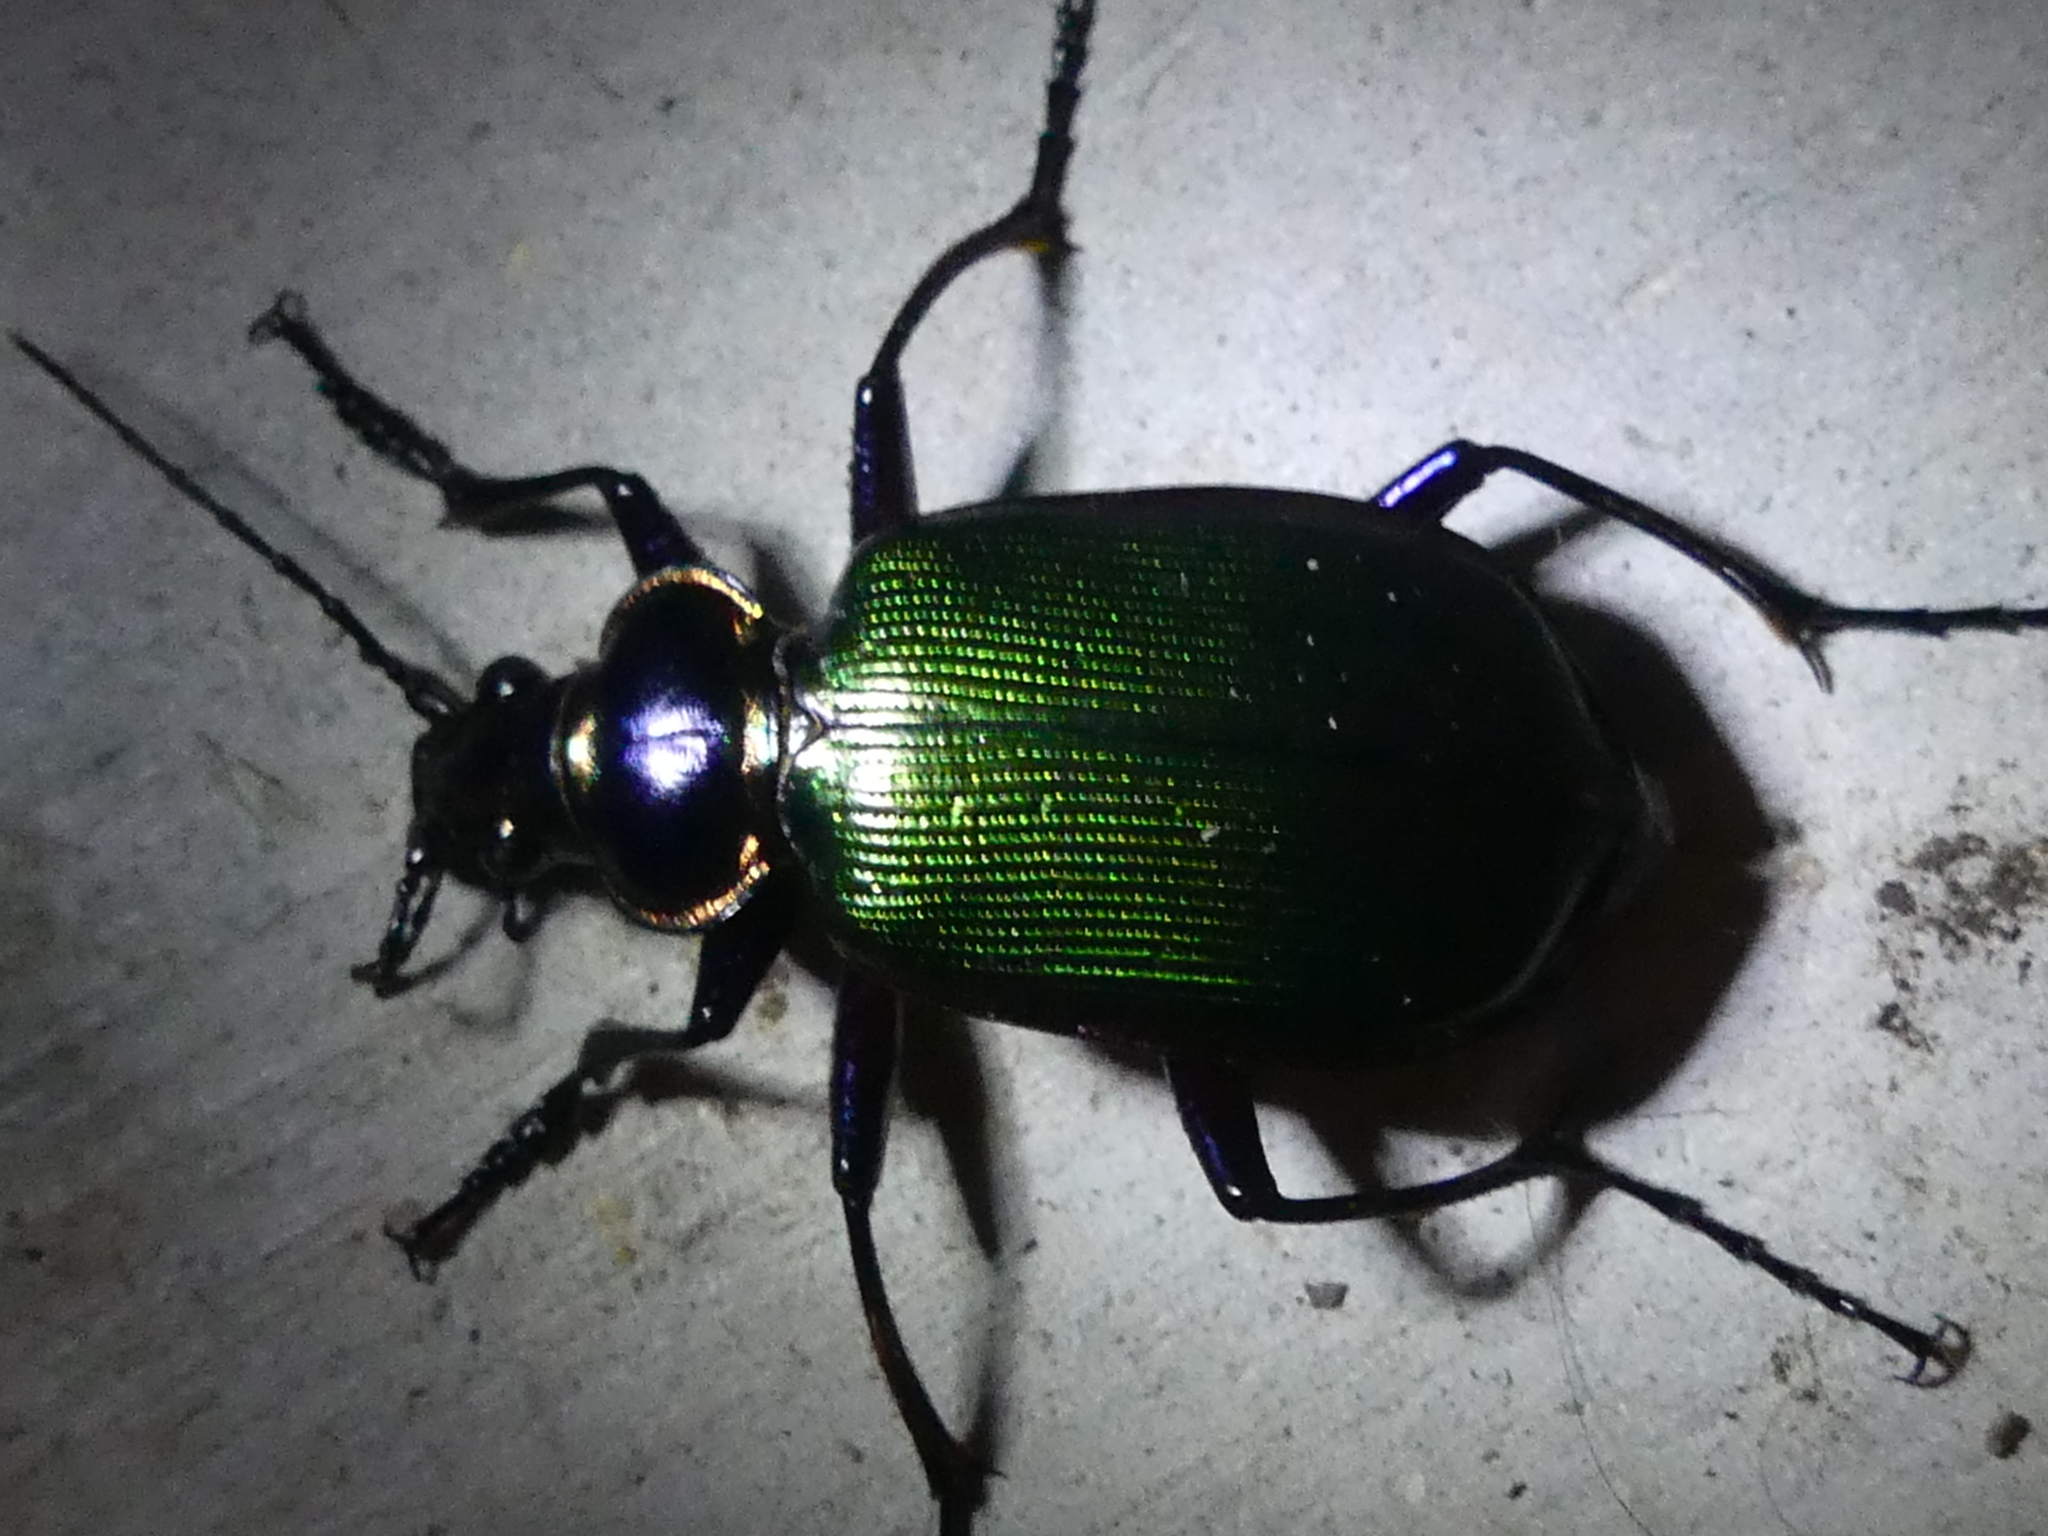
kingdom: Animalia
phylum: Arthropoda
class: Insecta
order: Coleoptera
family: Carabidae
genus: Calosoma
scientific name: Calosoma scrutator
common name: Fiery searcher beetle
